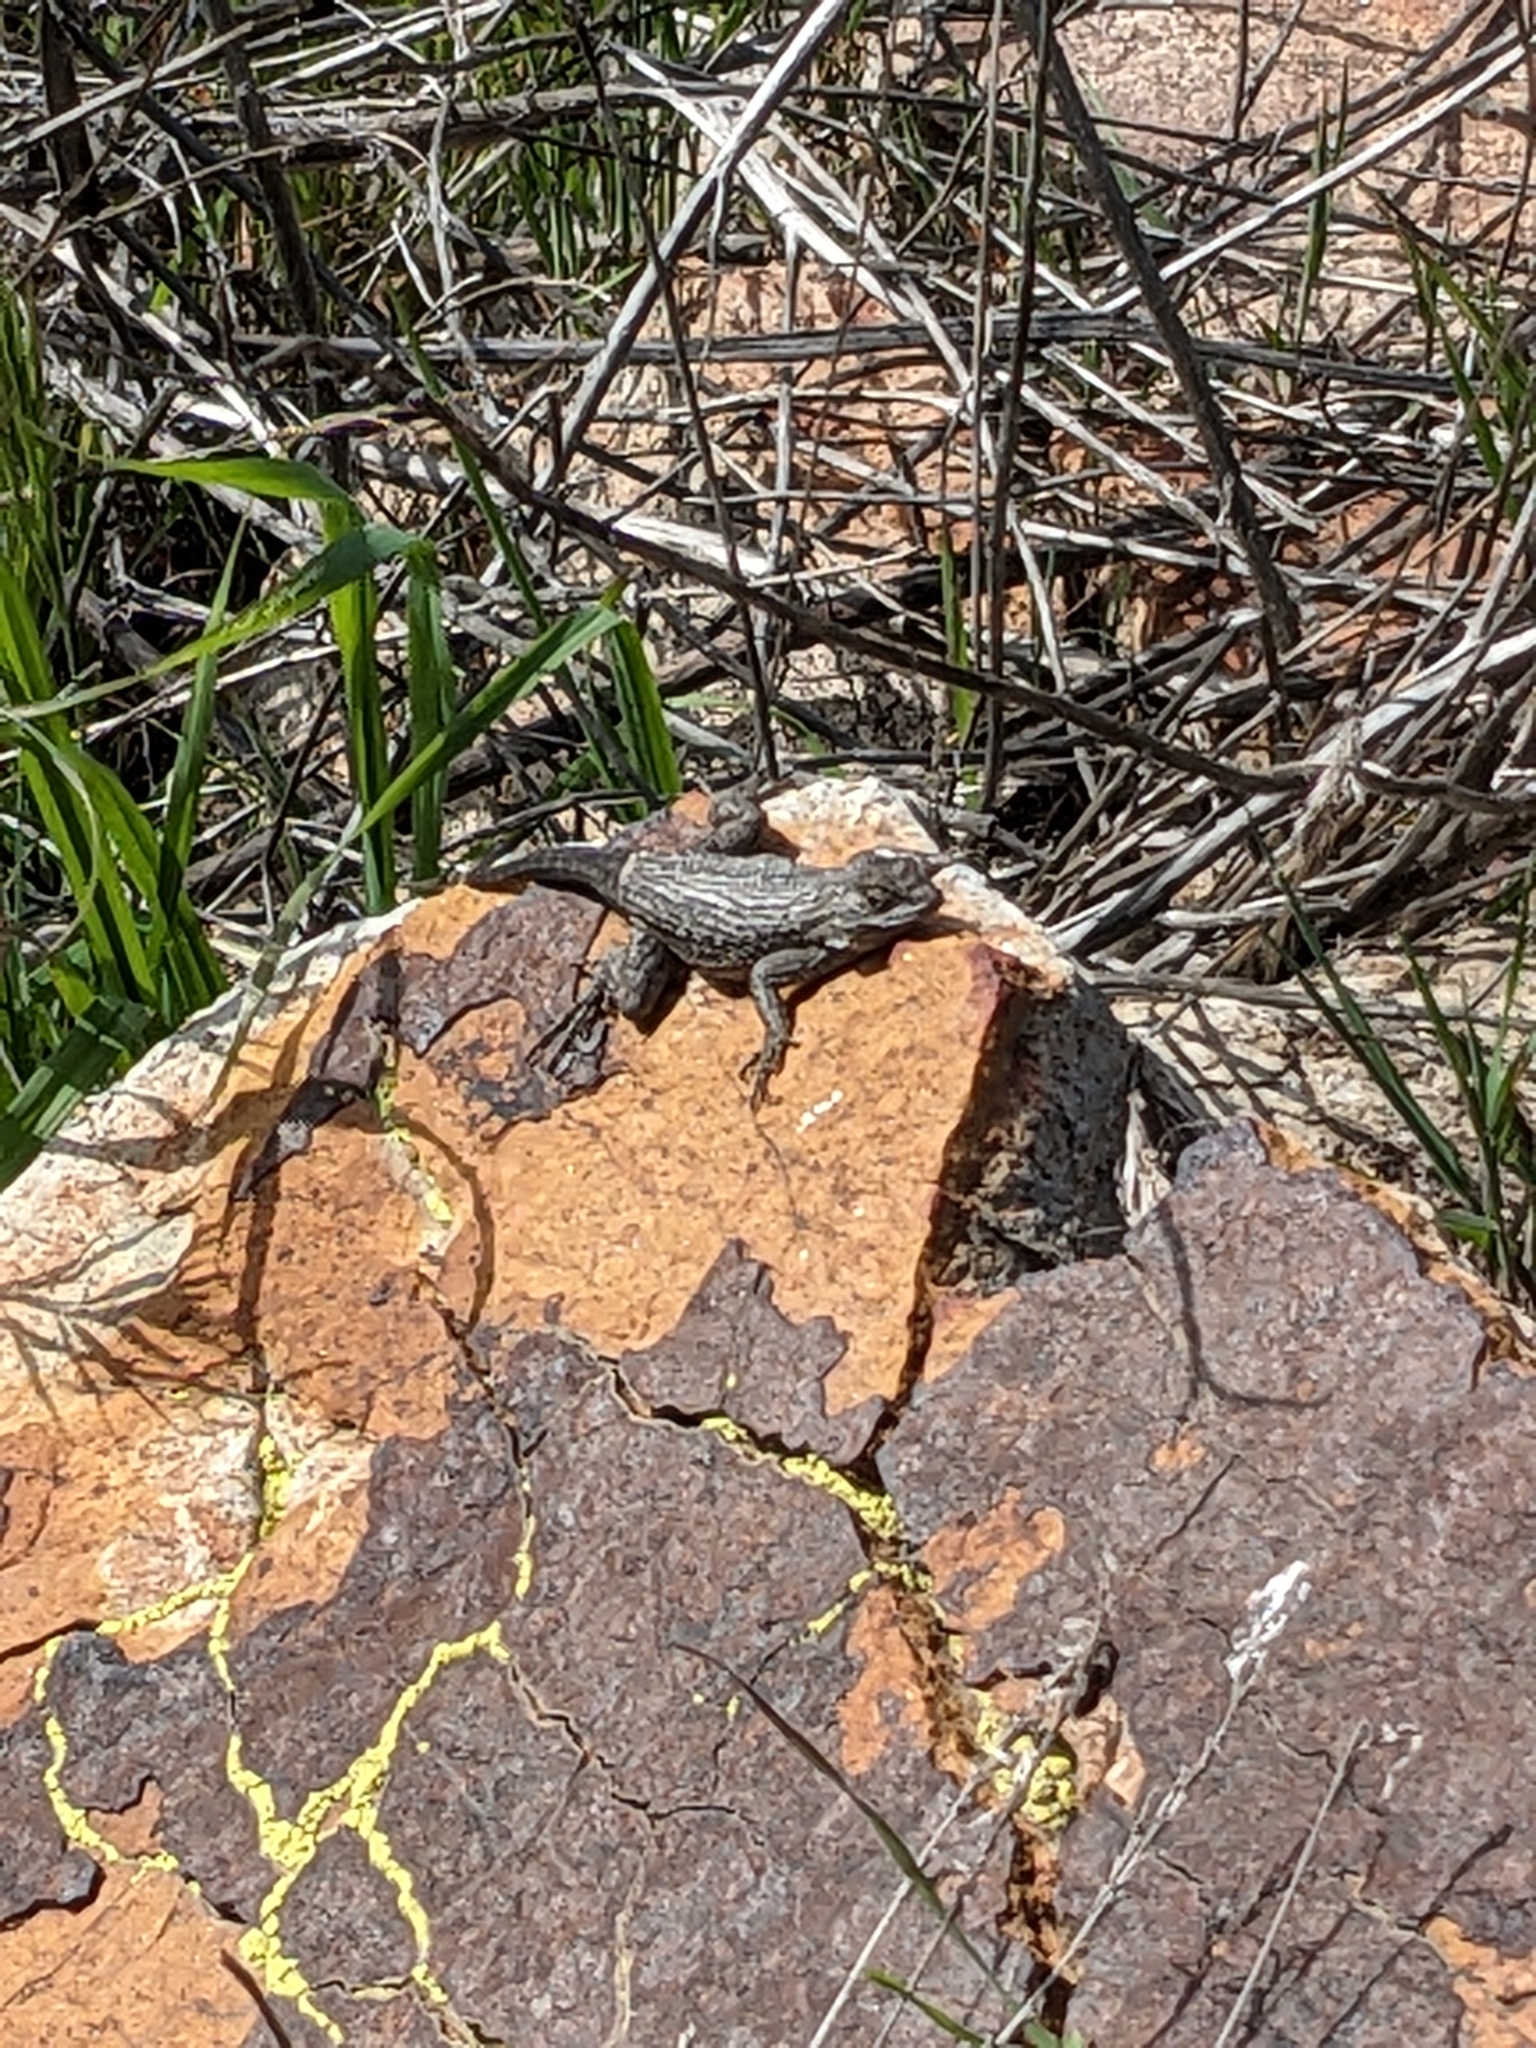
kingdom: Animalia
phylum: Chordata
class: Squamata
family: Phrynosomatidae
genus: Sceloporus
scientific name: Sceloporus occidentalis
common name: Western fence lizard
